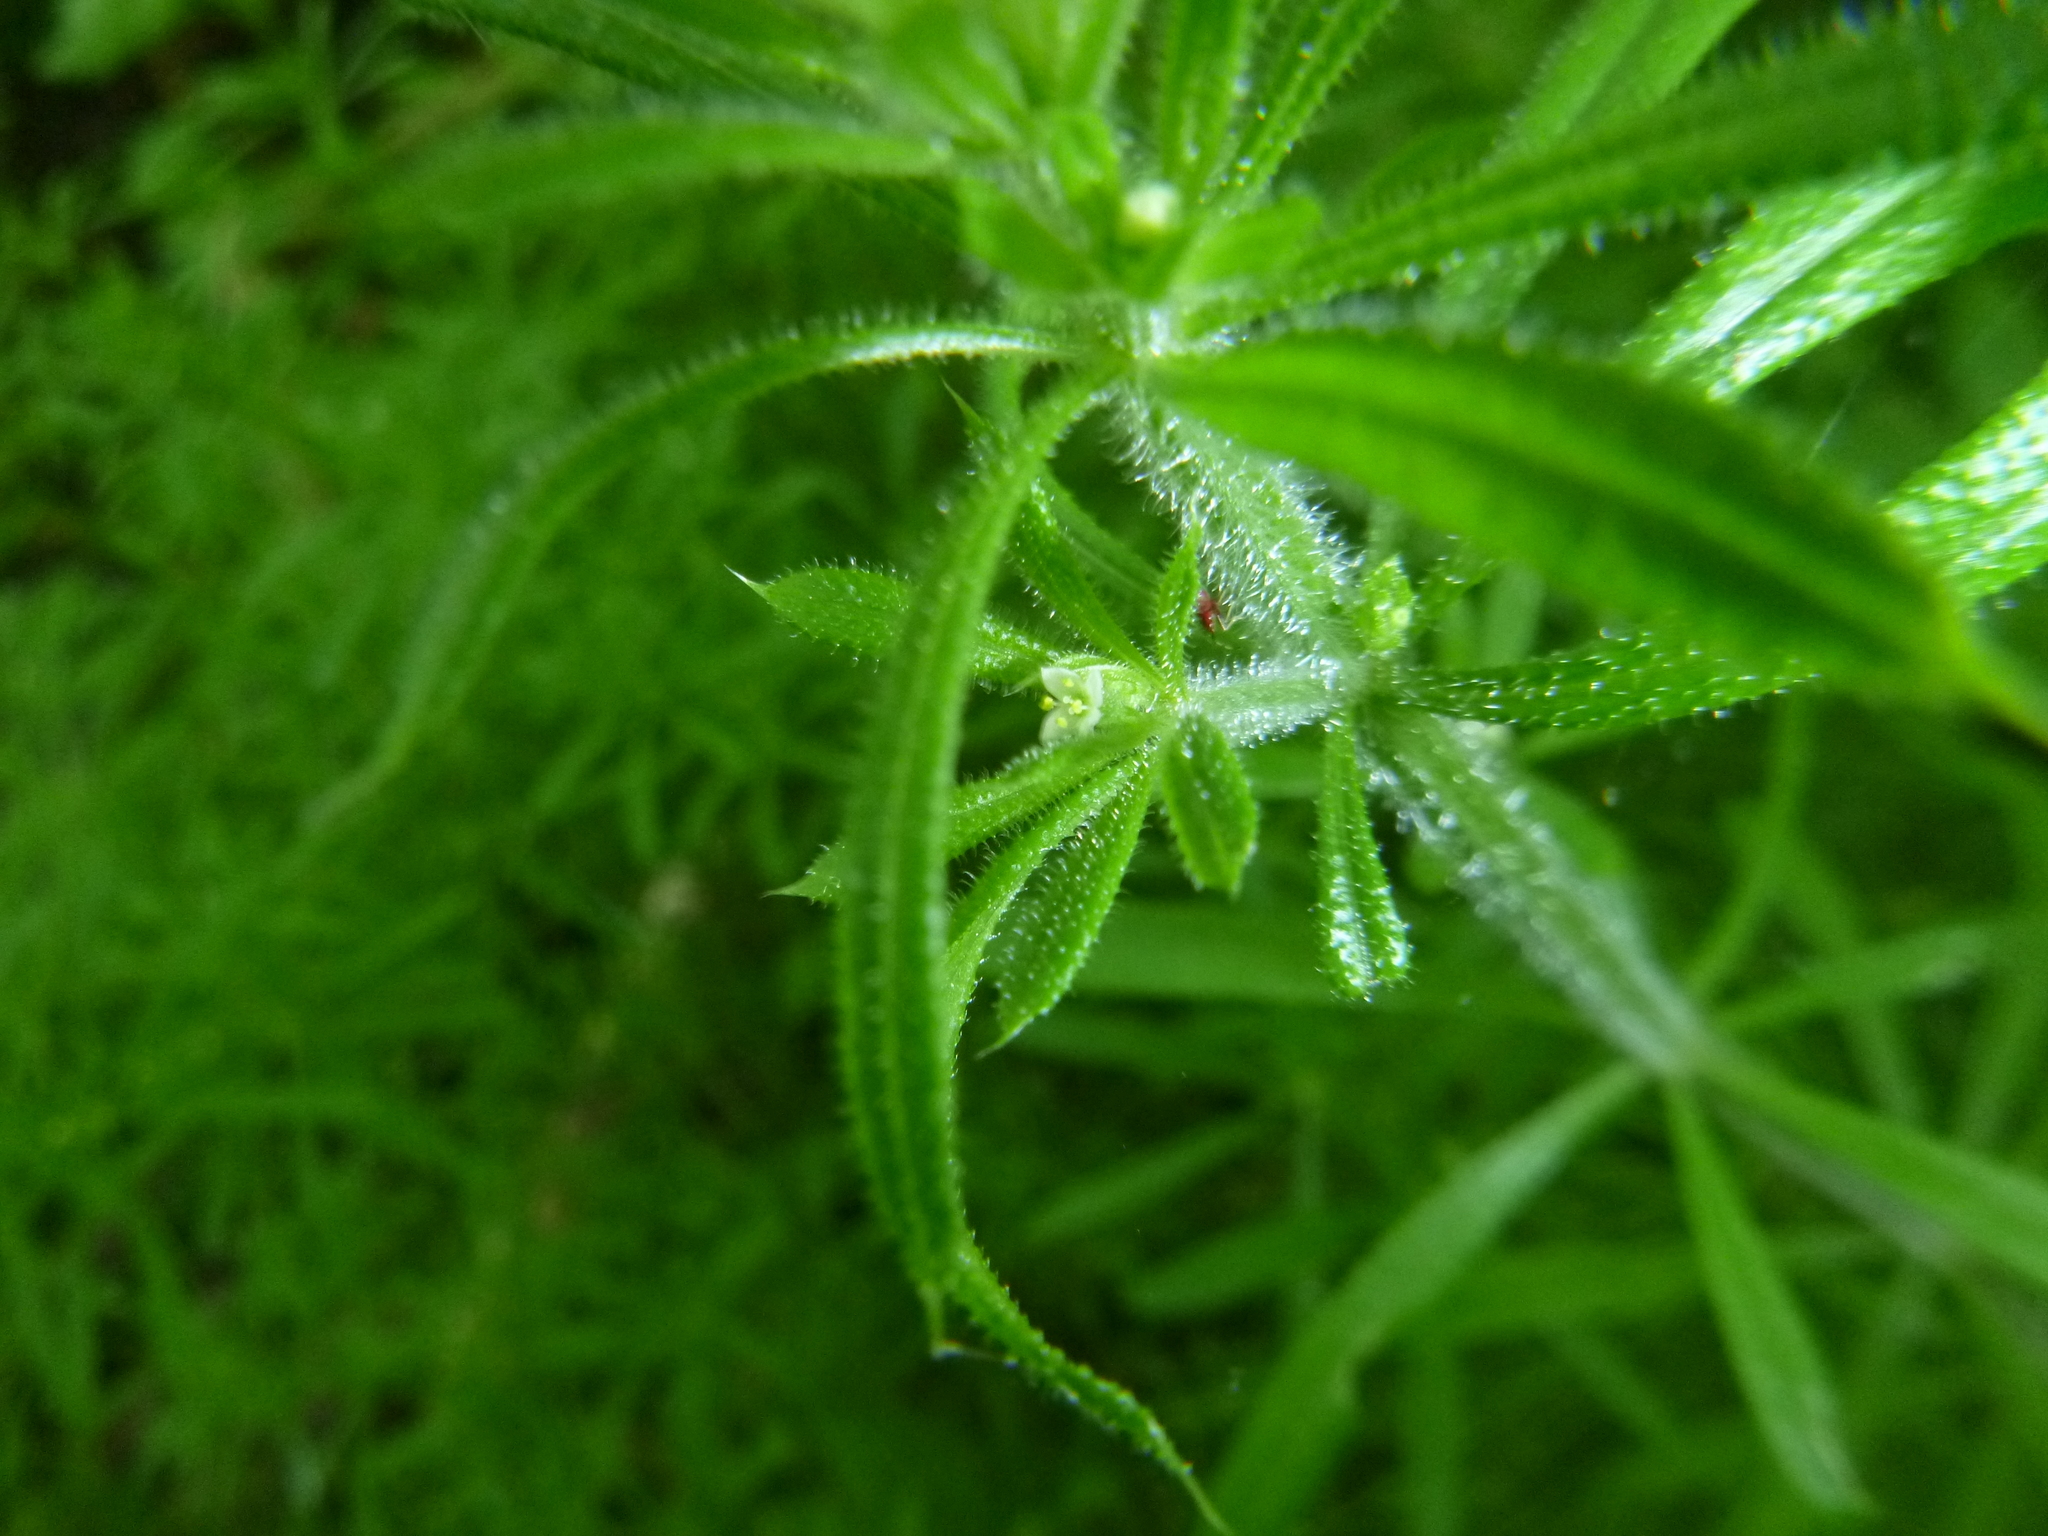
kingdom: Plantae
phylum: Tracheophyta
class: Magnoliopsida
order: Gentianales
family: Rubiaceae
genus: Galium
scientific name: Galium aparine
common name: Cleavers
